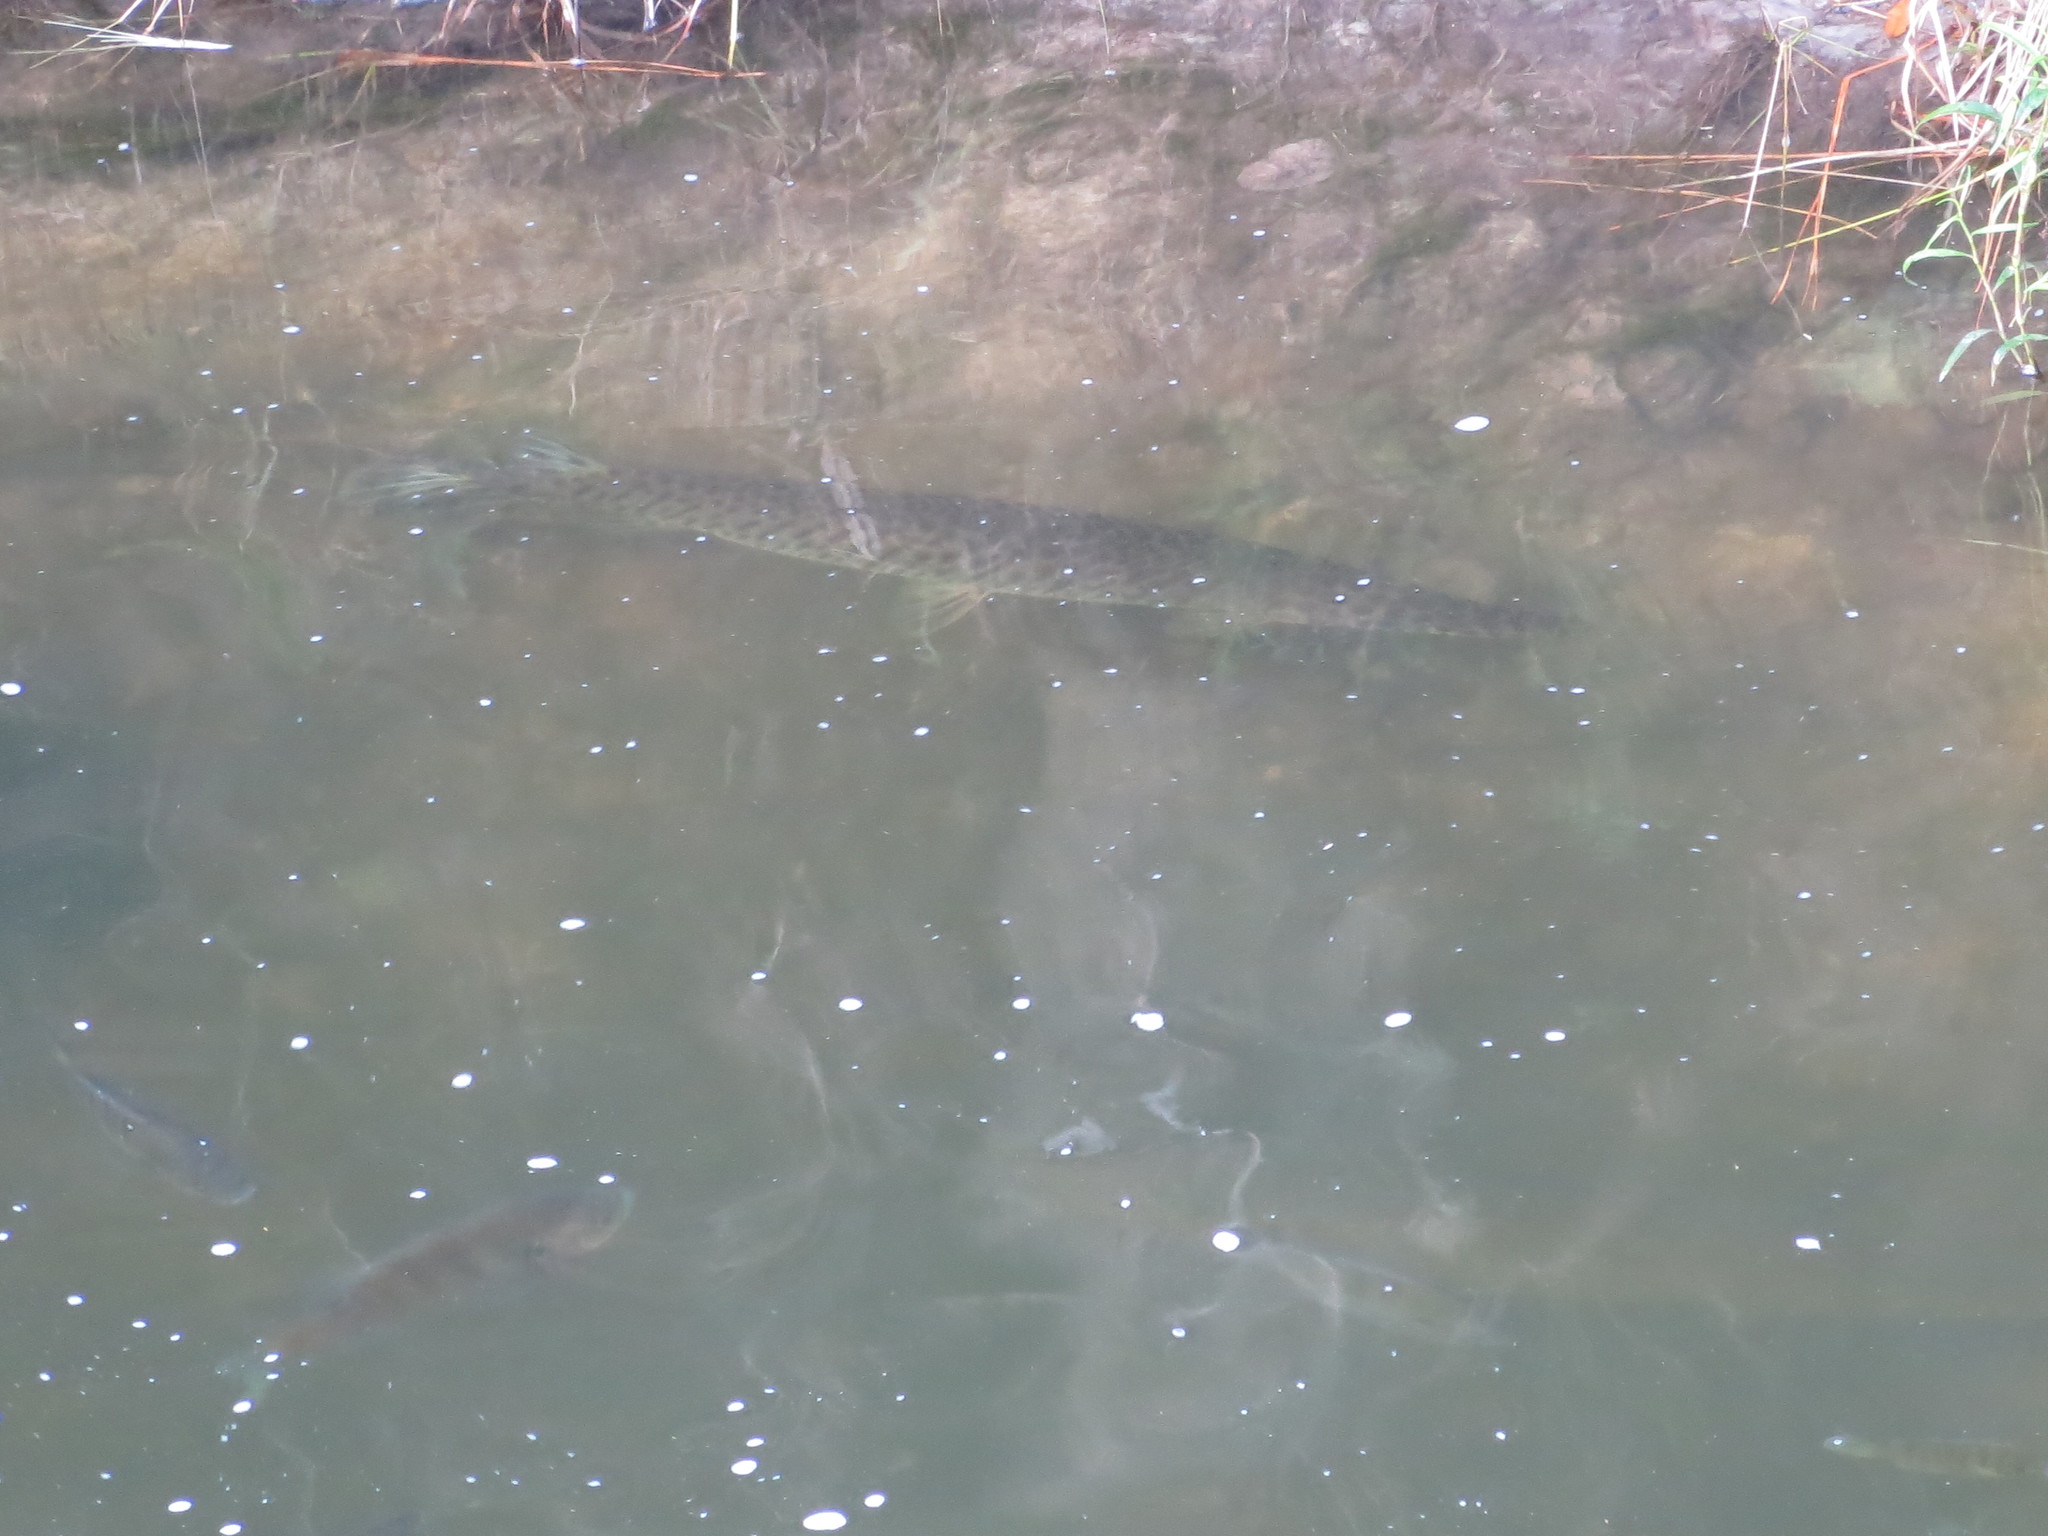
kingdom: Animalia
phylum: Chordata
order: Lepisosteiformes
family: Lepisosteidae
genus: Lepisosteus
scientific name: Lepisosteus platyrhincus
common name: Florida gar
